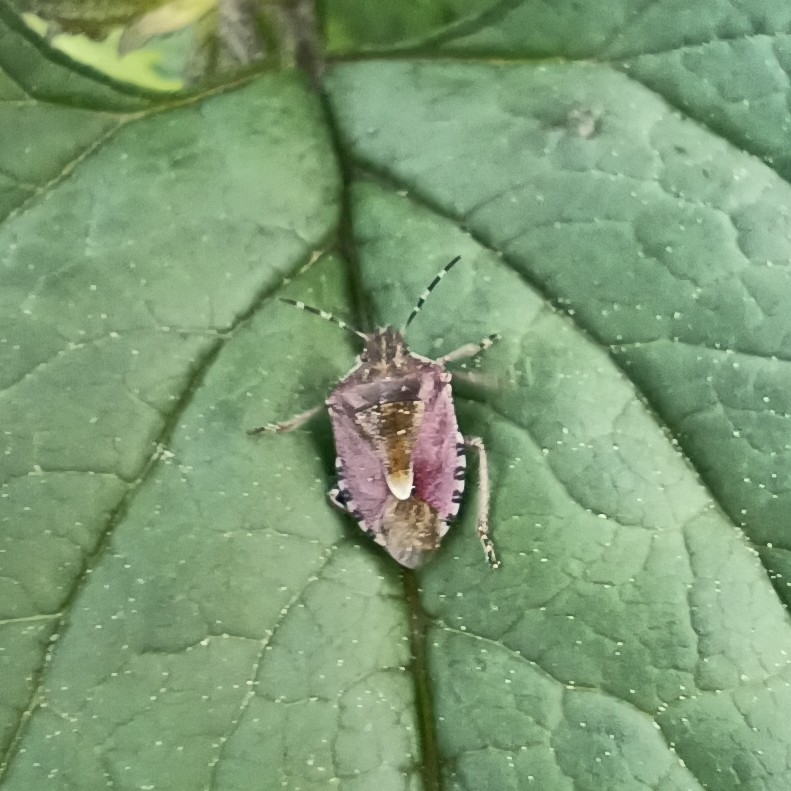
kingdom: Animalia
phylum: Arthropoda
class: Insecta
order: Hemiptera
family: Pentatomidae
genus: Dolycoris
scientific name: Dolycoris baccarum
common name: Sloe bug
